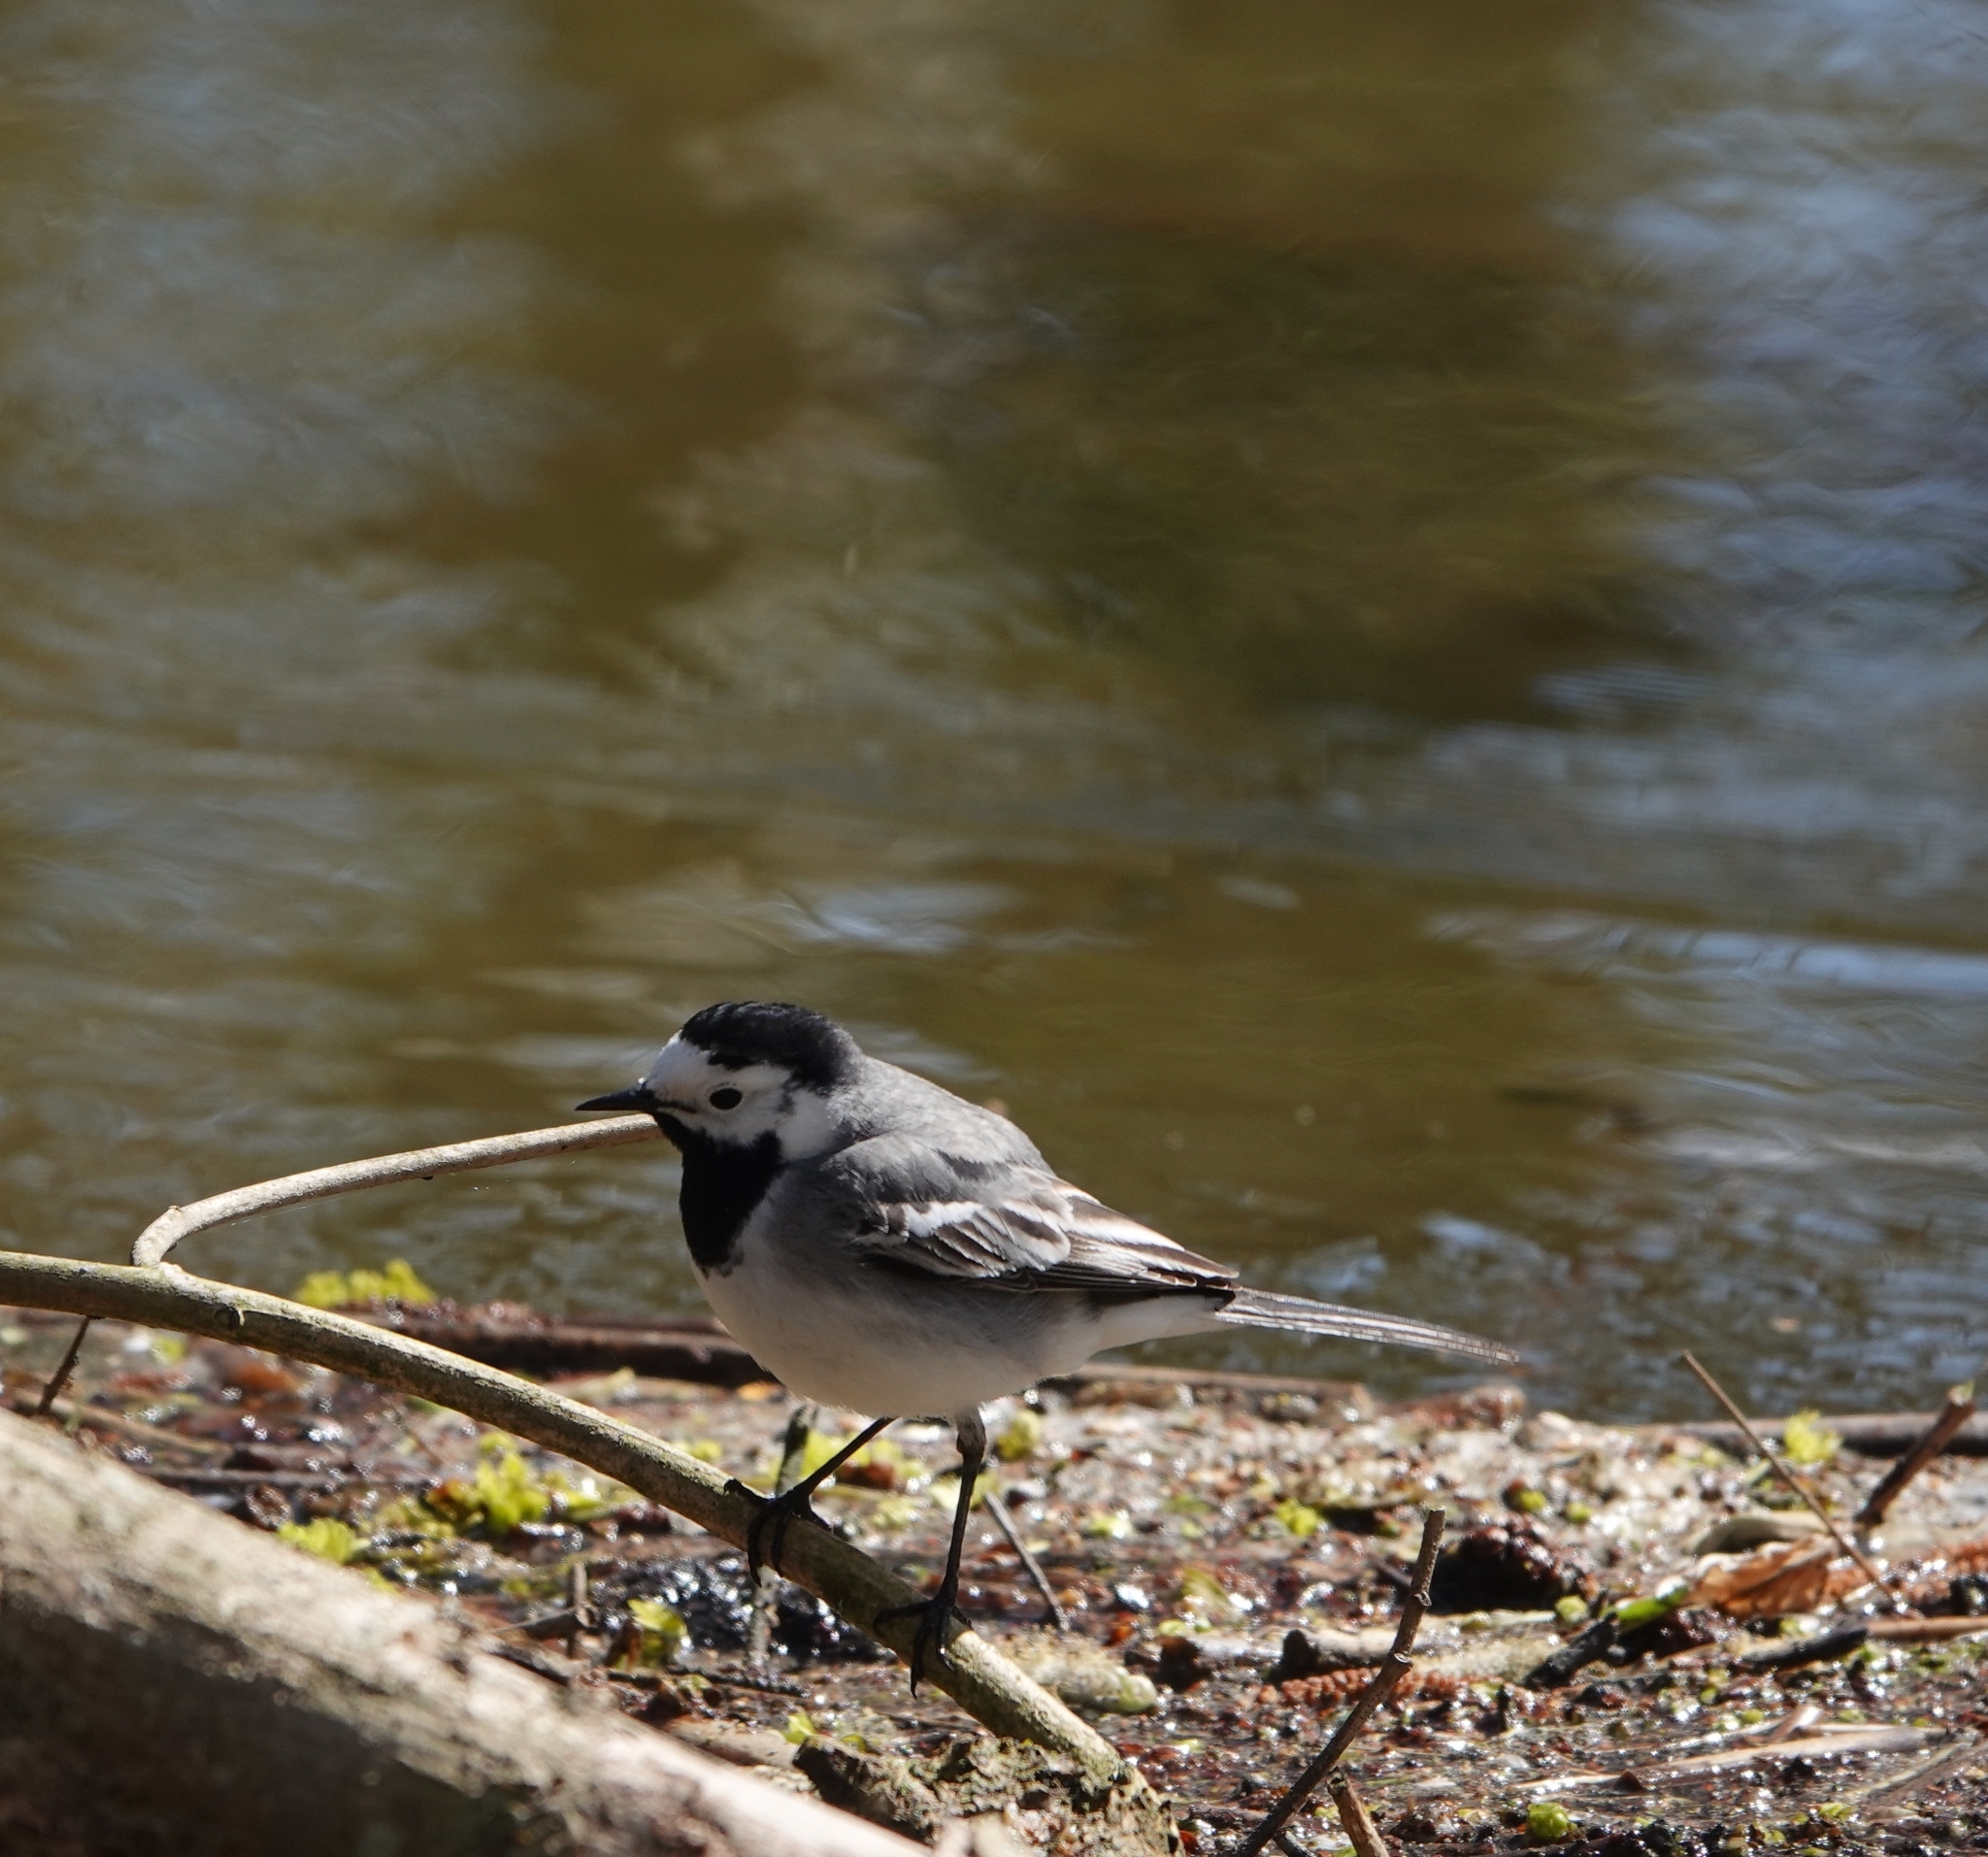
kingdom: Animalia
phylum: Chordata
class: Aves
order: Passeriformes
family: Motacillidae
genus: Motacilla
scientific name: Motacilla alba
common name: White wagtail
